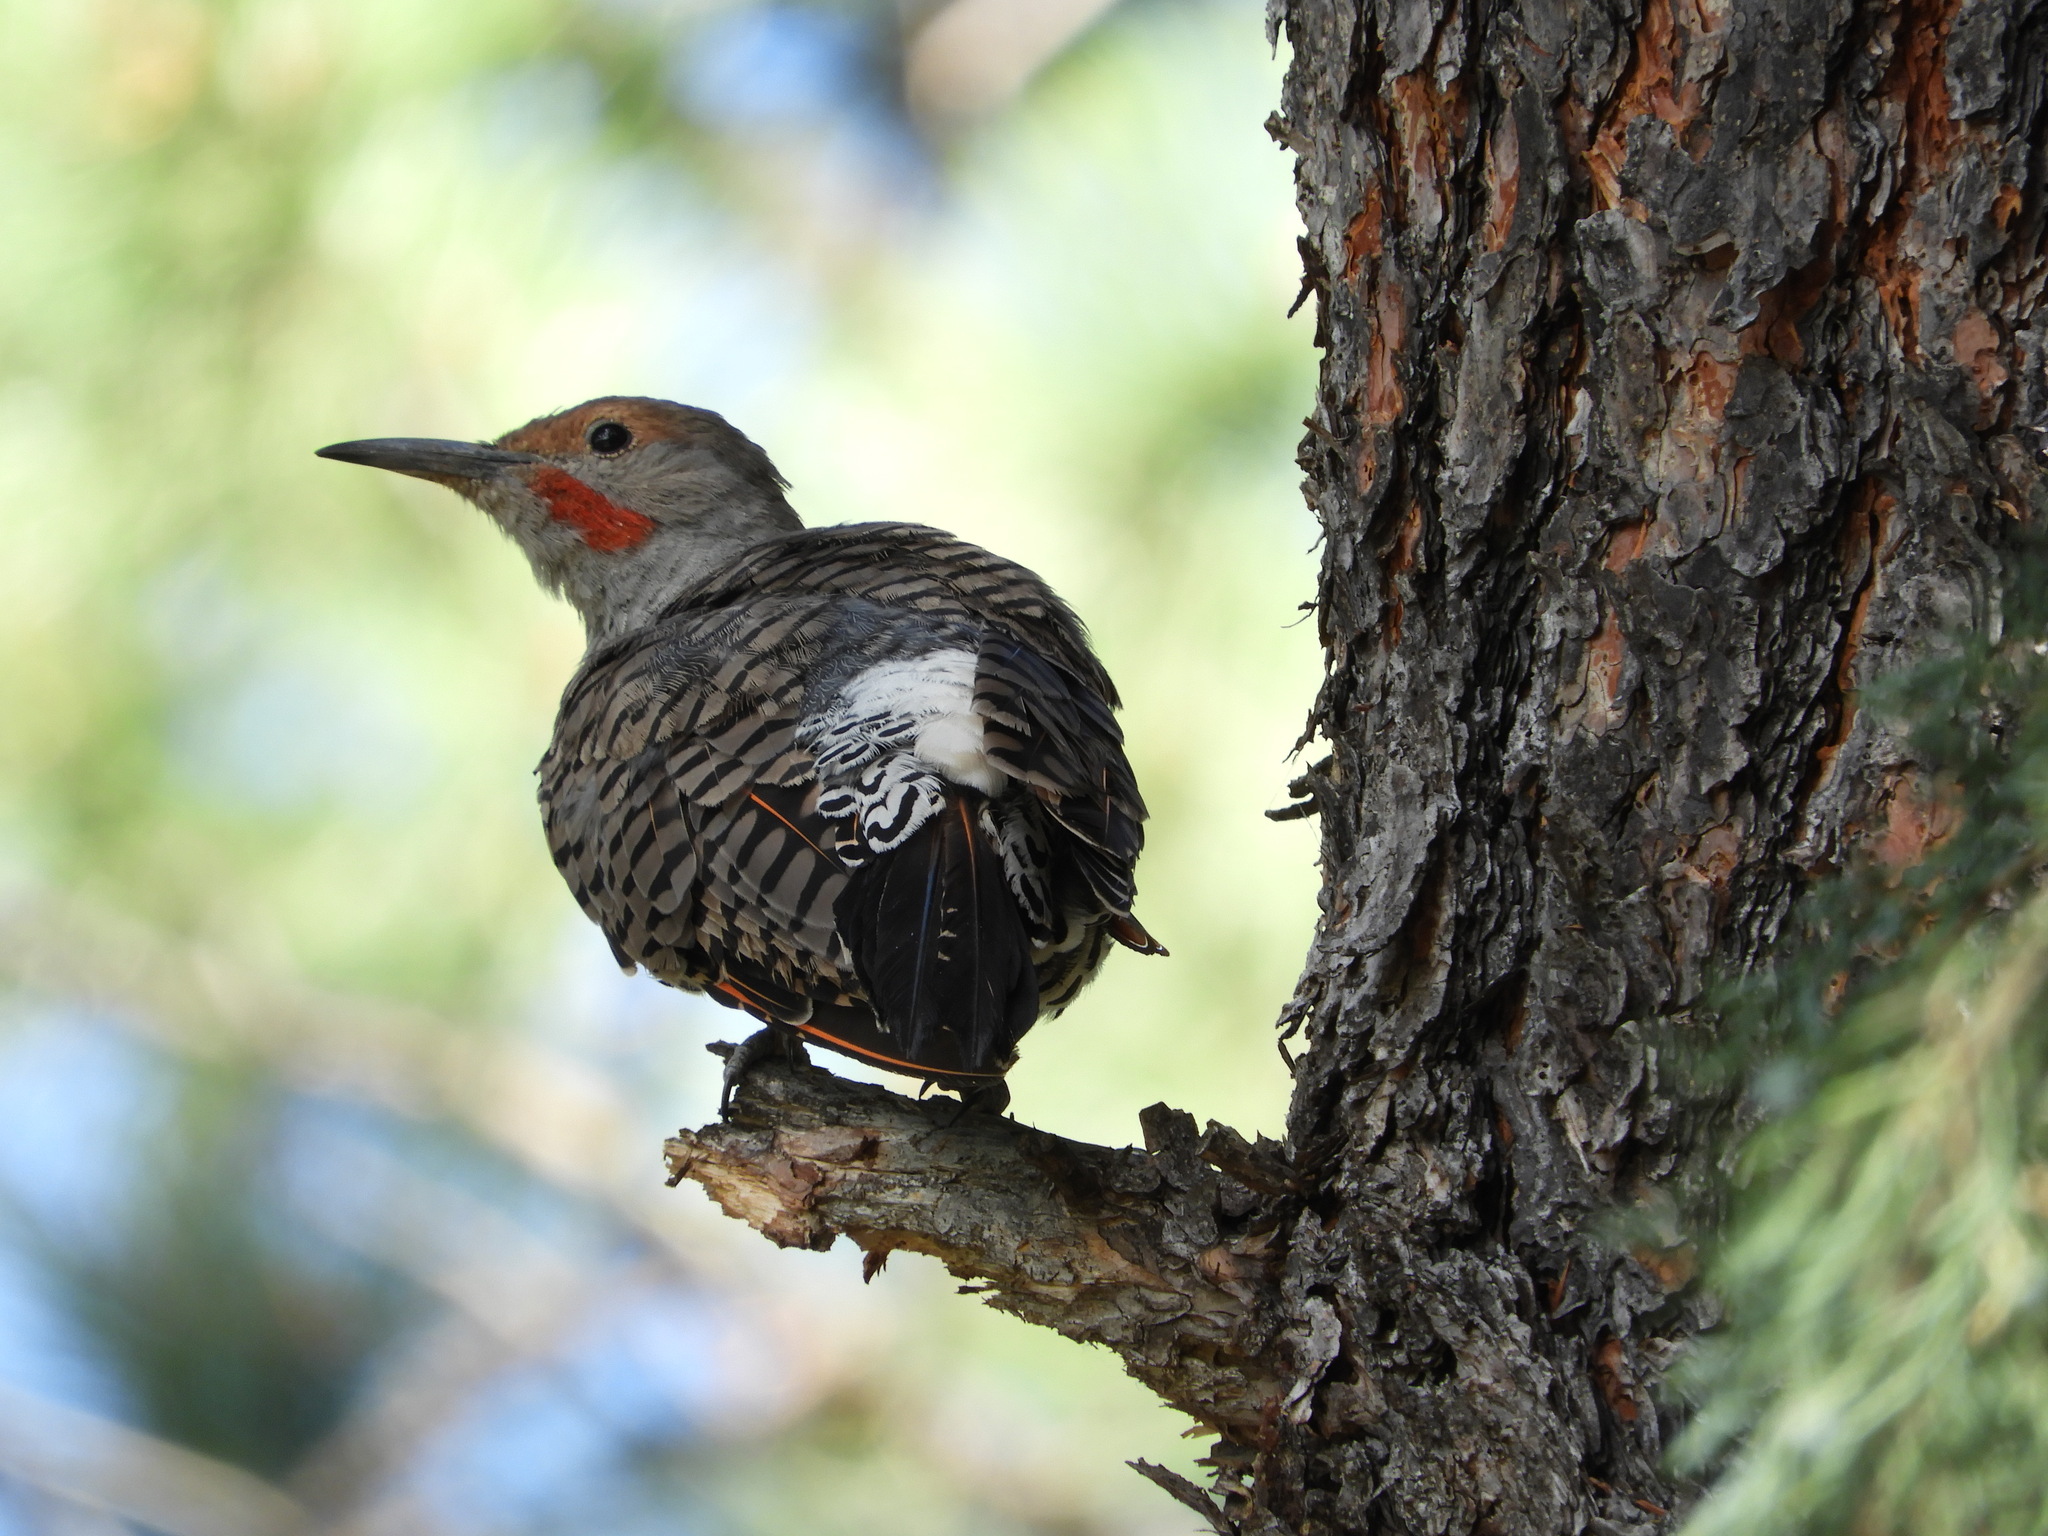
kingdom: Animalia
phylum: Chordata
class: Aves
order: Piciformes
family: Picidae
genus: Colaptes
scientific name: Colaptes auratus
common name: Northern flicker
